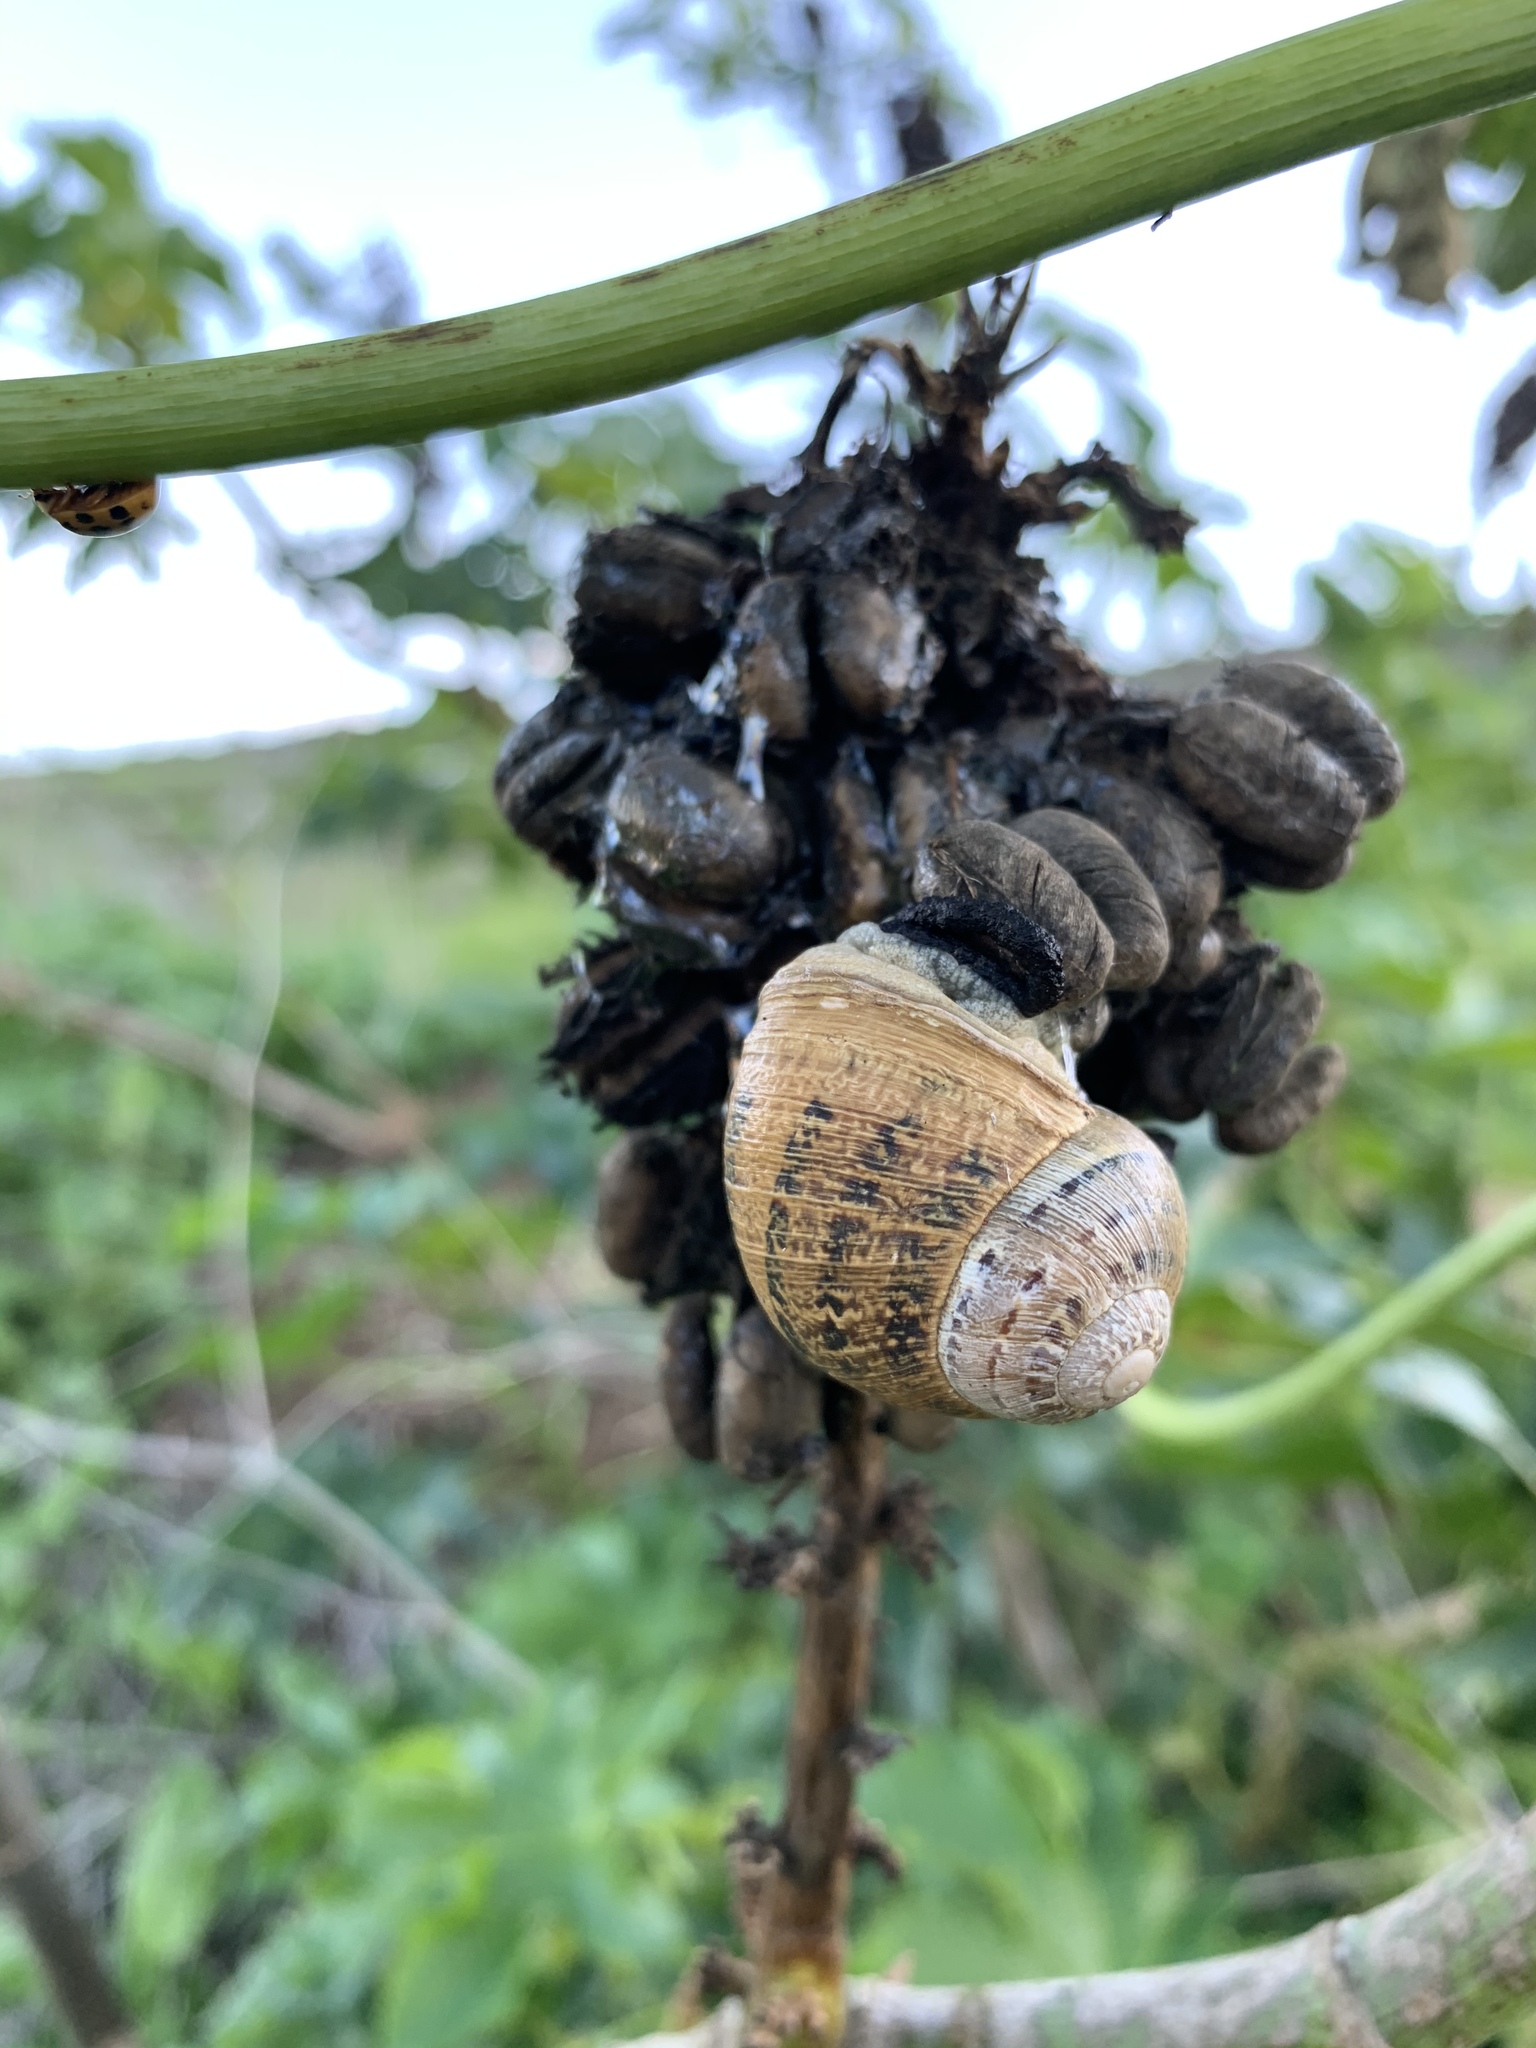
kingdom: Animalia
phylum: Mollusca
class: Gastropoda
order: Stylommatophora
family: Helicidae
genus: Cornu
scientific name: Cornu aspersum
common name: Brown garden snail
